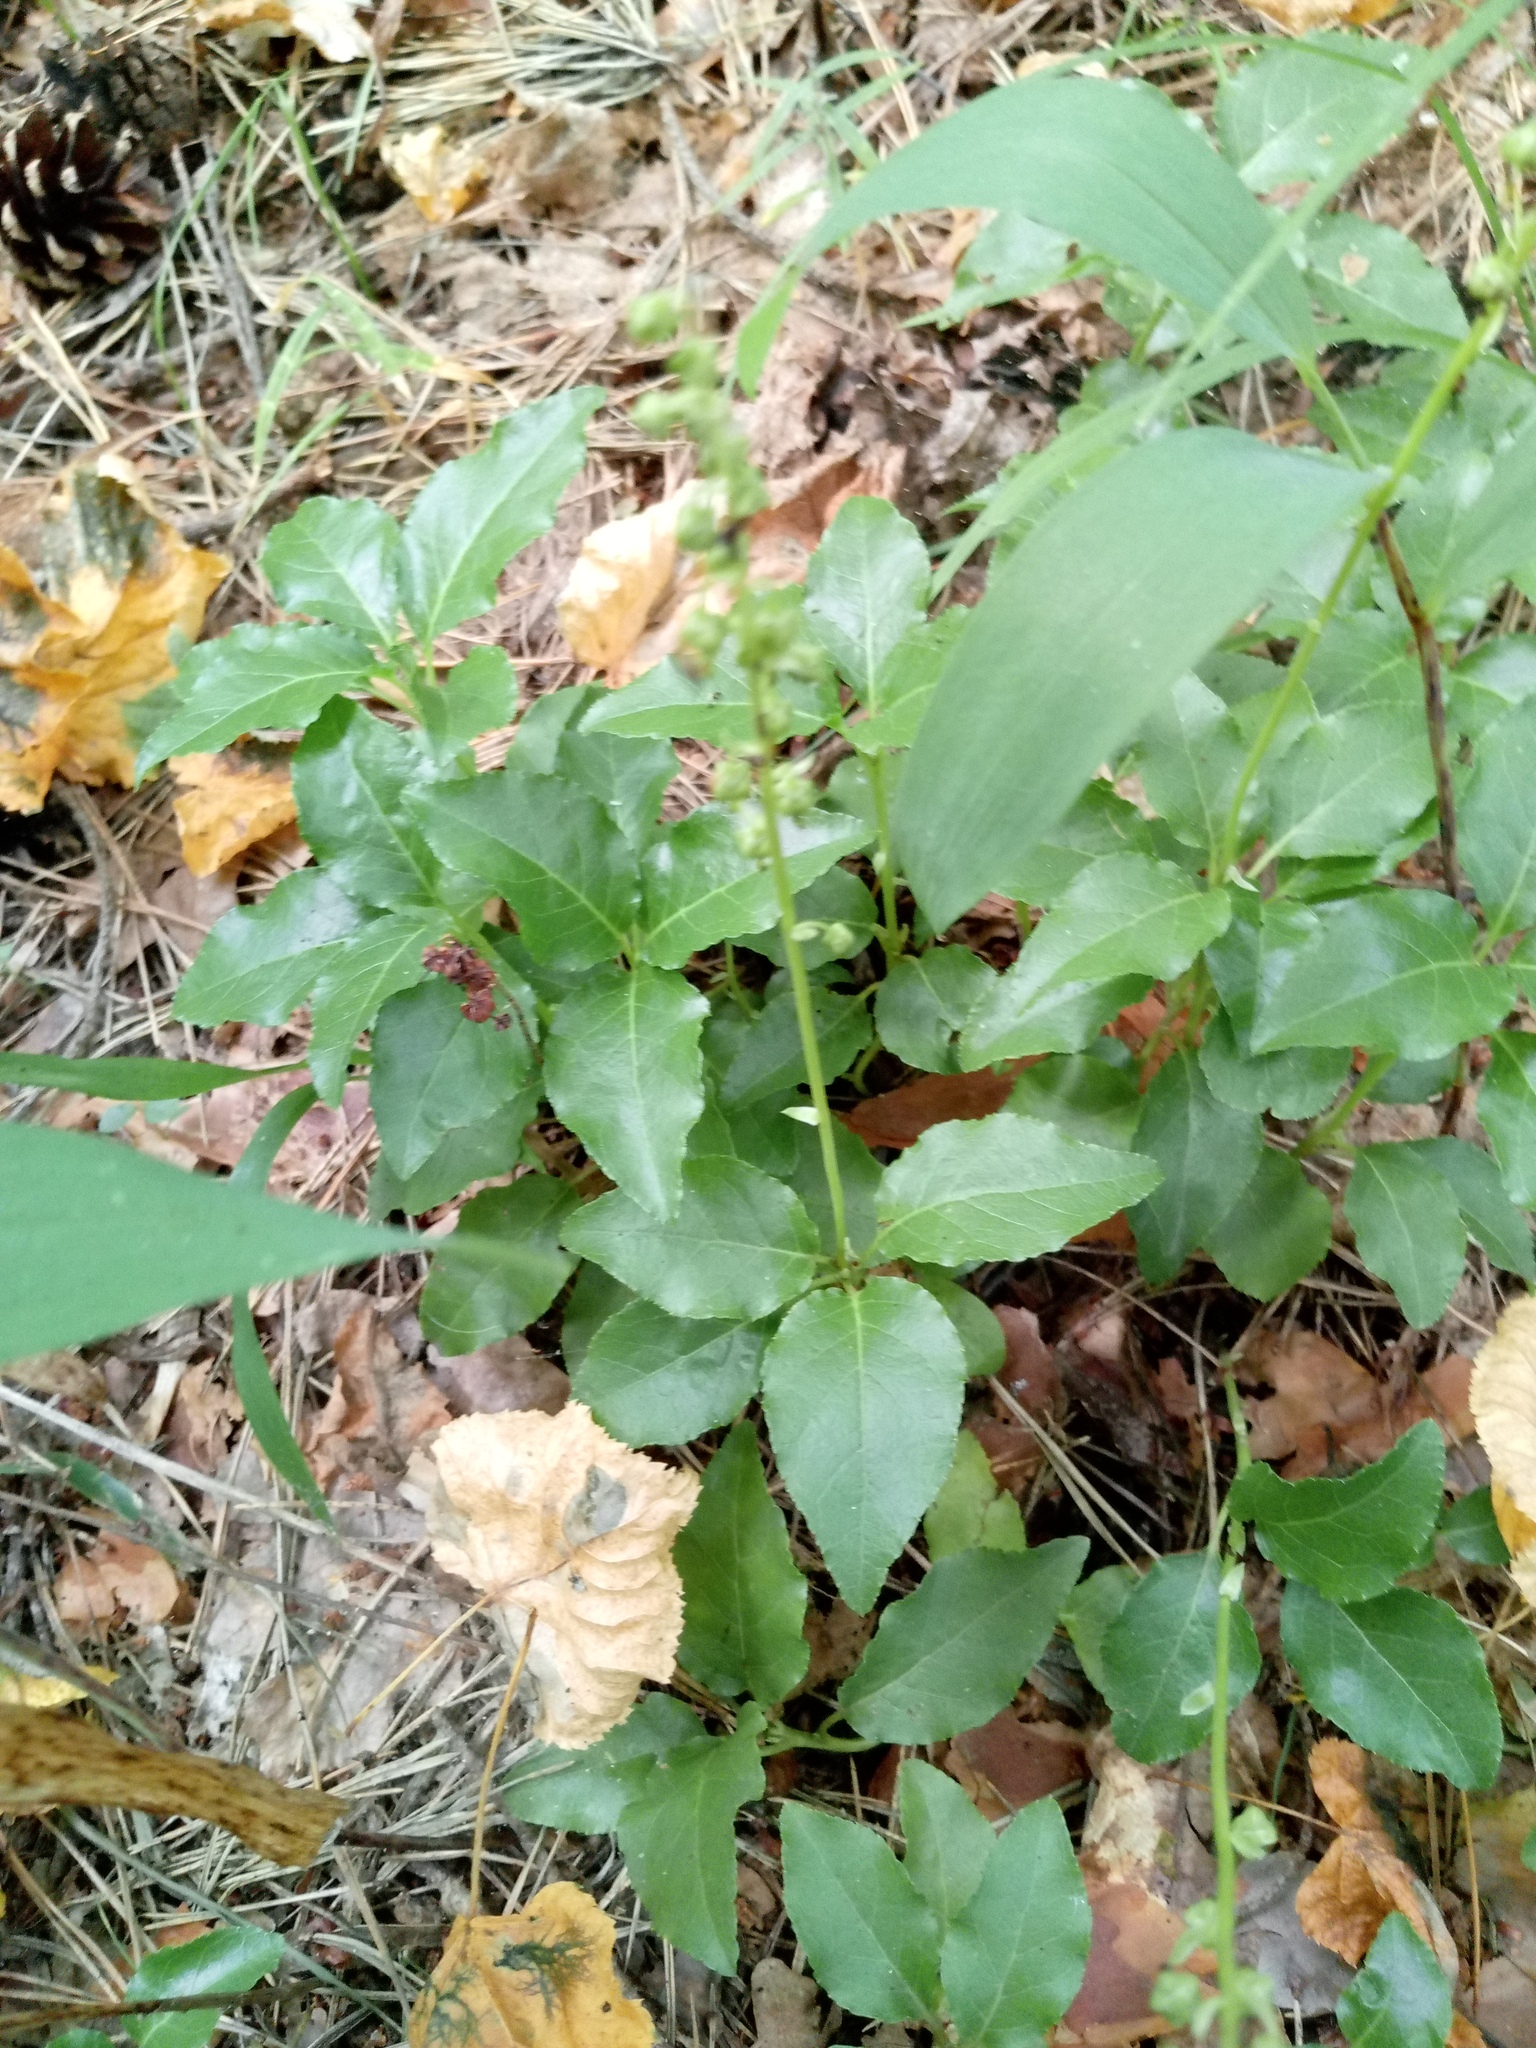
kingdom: Plantae
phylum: Tracheophyta
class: Magnoliopsida
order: Ericales
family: Ericaceae
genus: Orthilia
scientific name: Orthilia secunda
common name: One-sided orthilia
